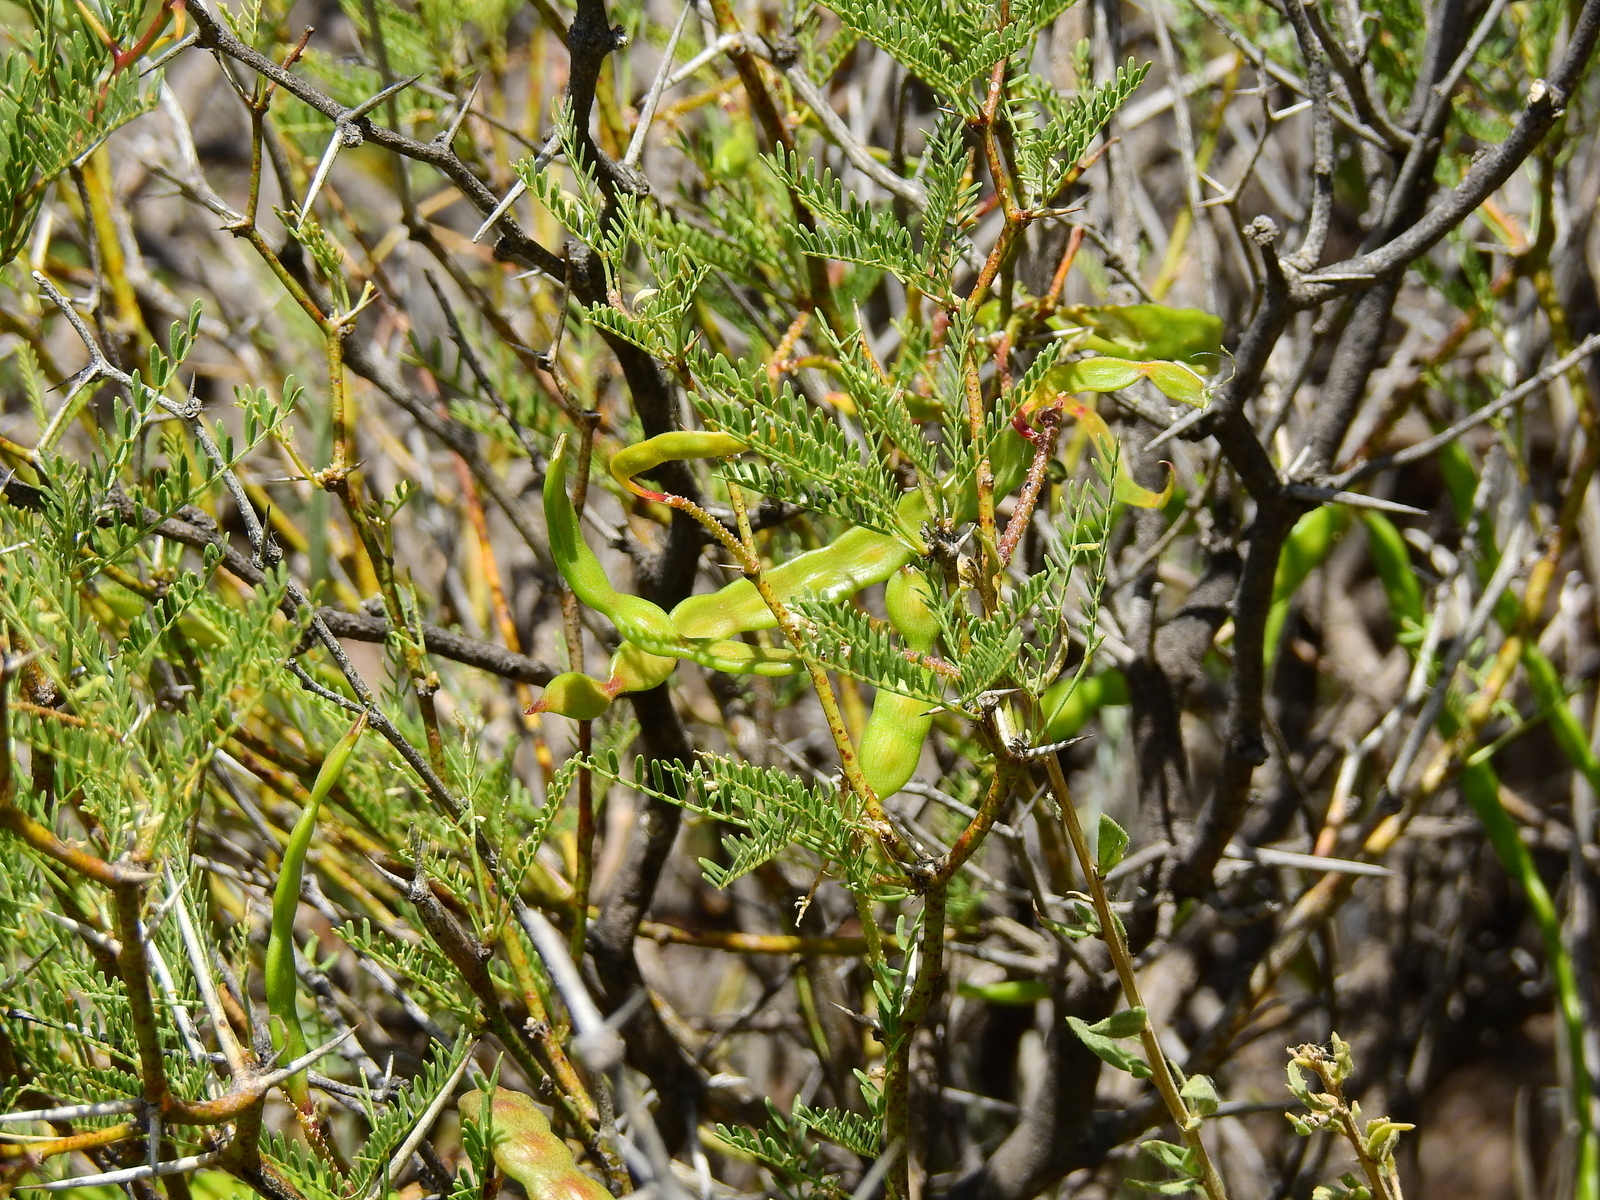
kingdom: Plantae
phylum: Tracheophyta
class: Magnoliopsida
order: Fabales
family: Fabaceae
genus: Prosopis
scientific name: Prosopis flexuosa
